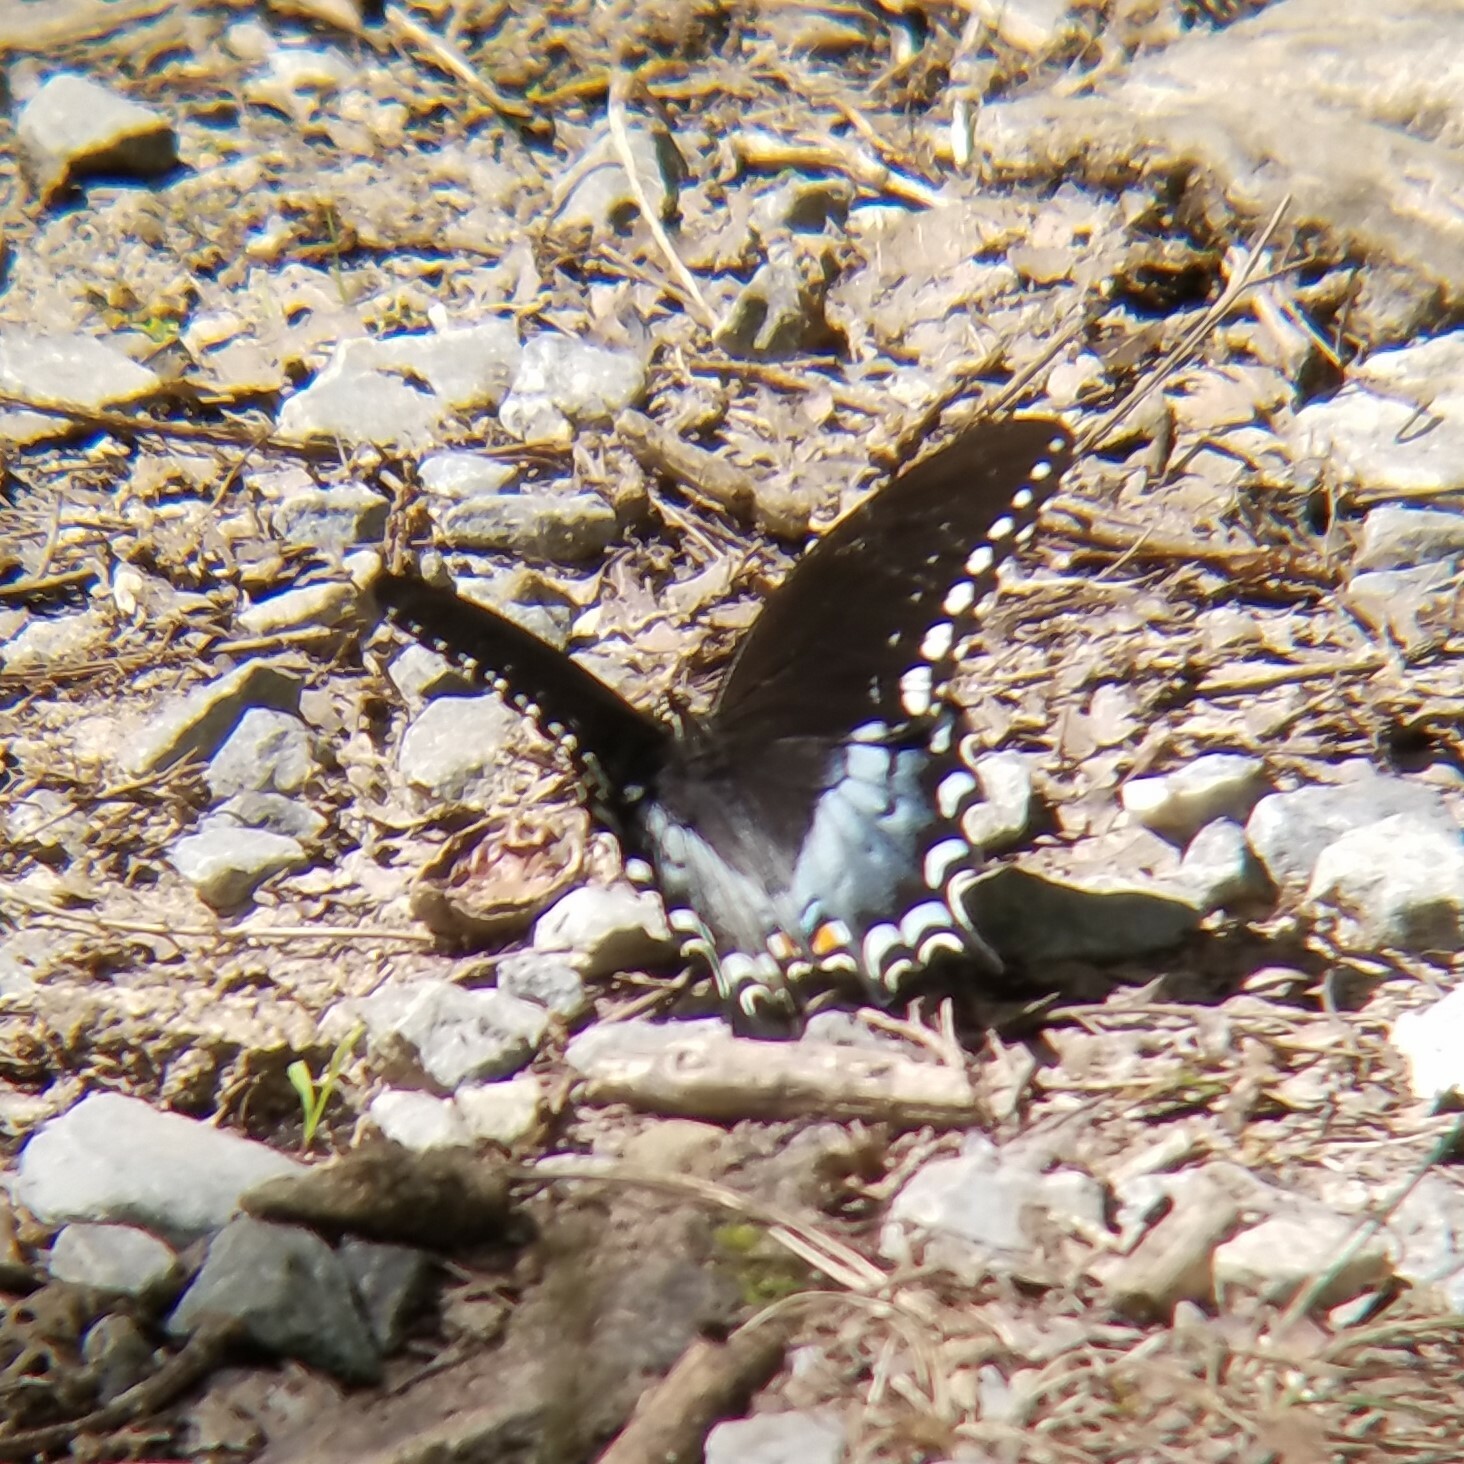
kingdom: Animalia
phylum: Arthropoda
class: Insecta
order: Lepidoptera
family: Papilionidae
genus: Papilio
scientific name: Papilio troilus
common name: Spicebush swallowtail
